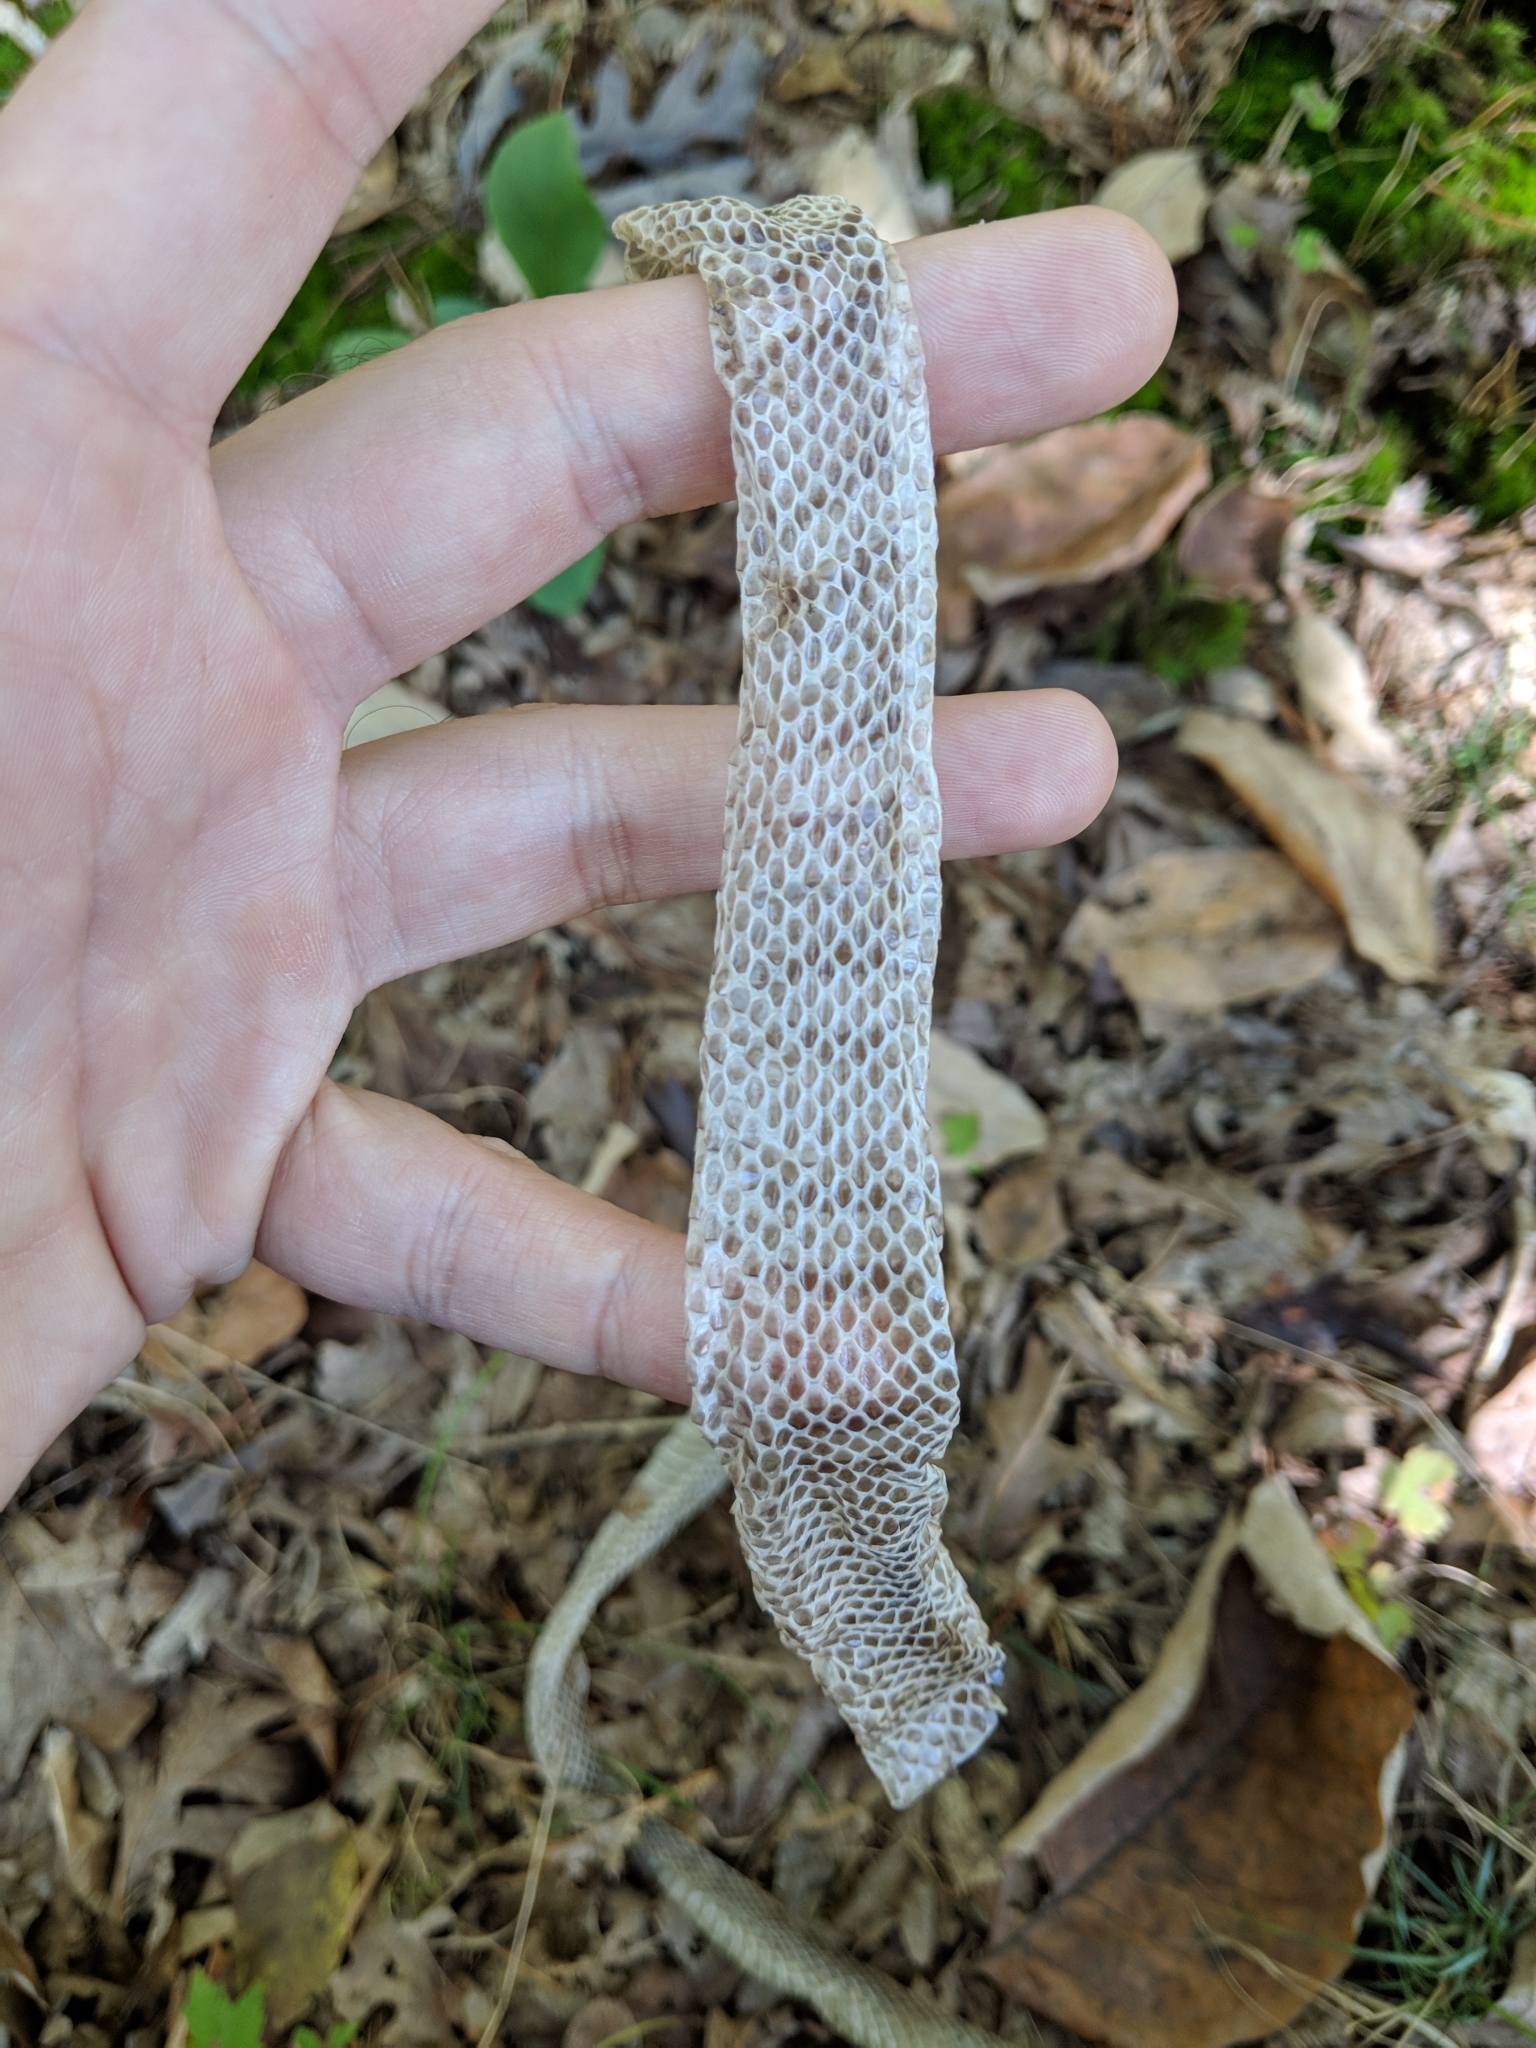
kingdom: Animalia
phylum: Chordata
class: Squamata
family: Colubridae
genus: Lampropeltis
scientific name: Lampropeltis triangulum
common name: Eastern milksnake
